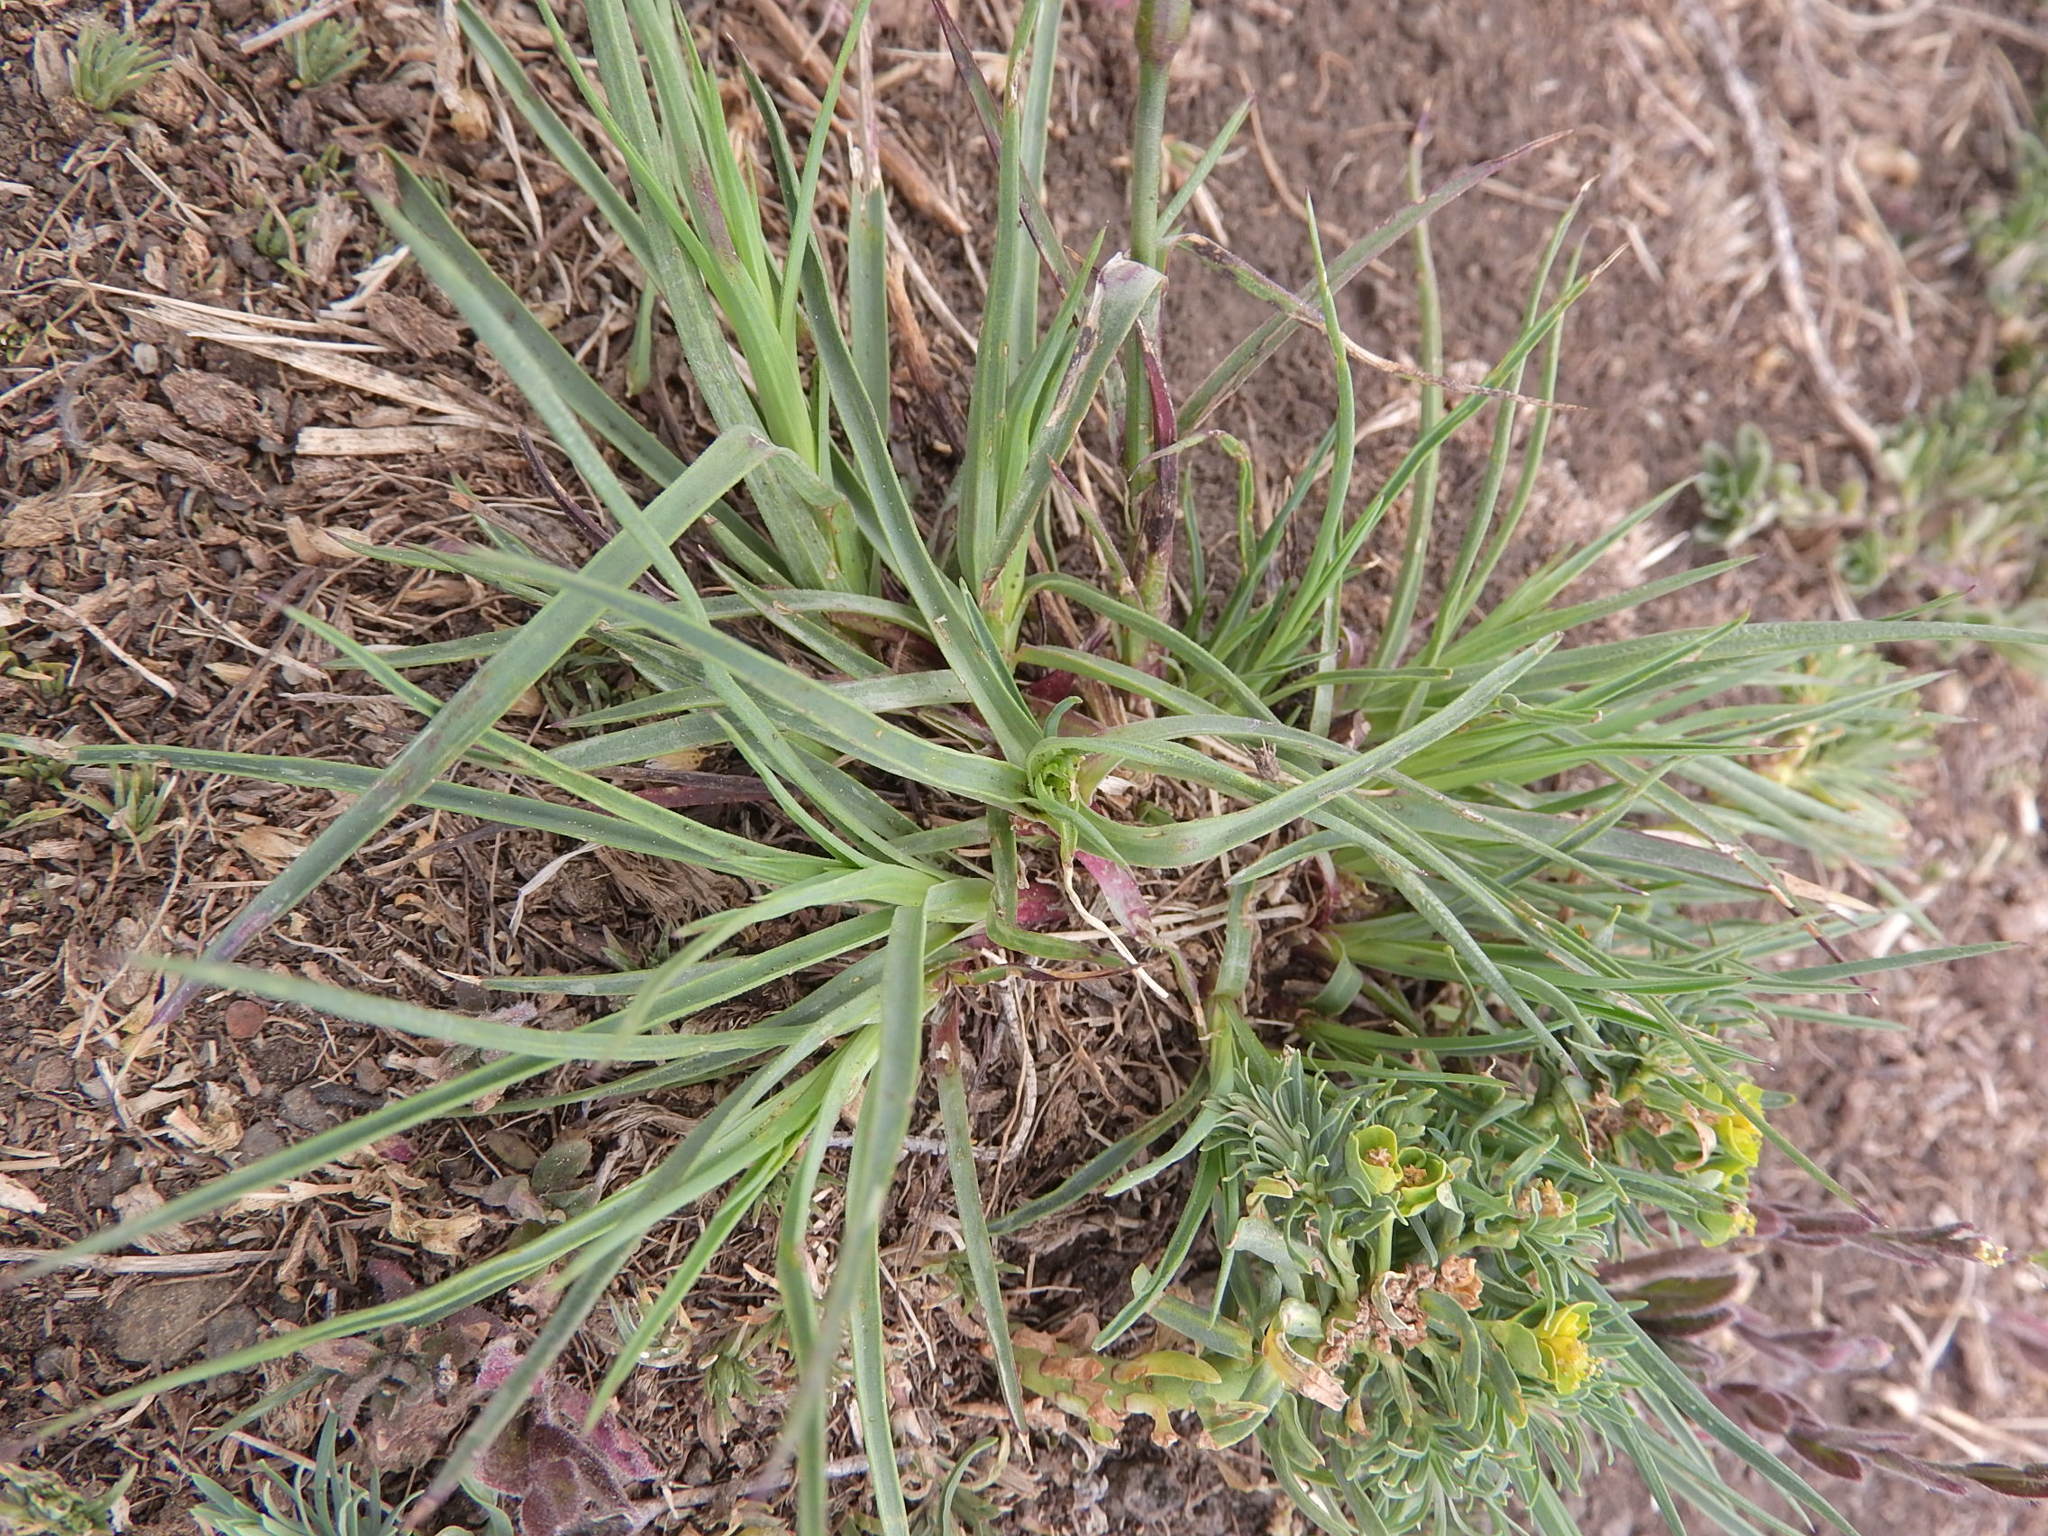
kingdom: Plantae
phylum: Tracheophyta
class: Magnoliopsida
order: Caryophyllales
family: Caryophyllaceae
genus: Dianthus
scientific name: Dianthus carthusianorum
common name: Carthusian pink
